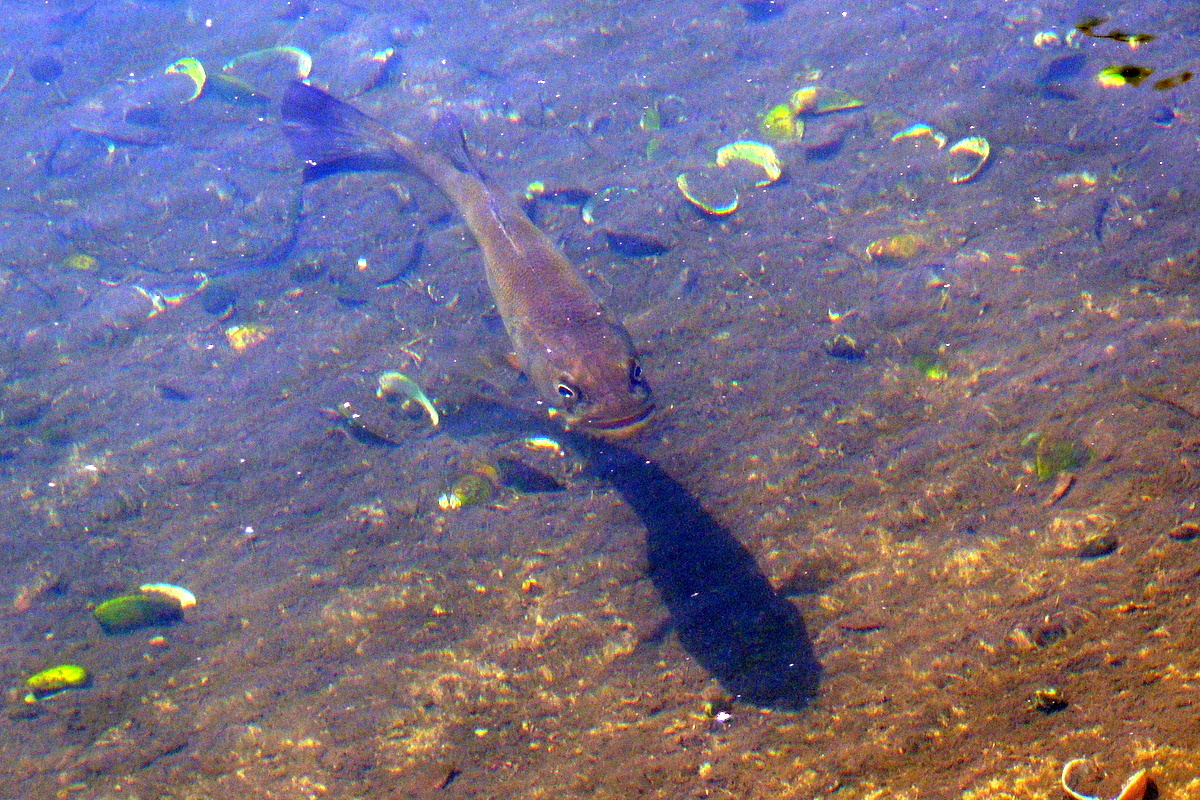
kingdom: Animalia
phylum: Chordata
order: Perciformes
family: Centrarchidae
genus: Micropterus
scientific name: Micropterus salmoides
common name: Largemouth bass
